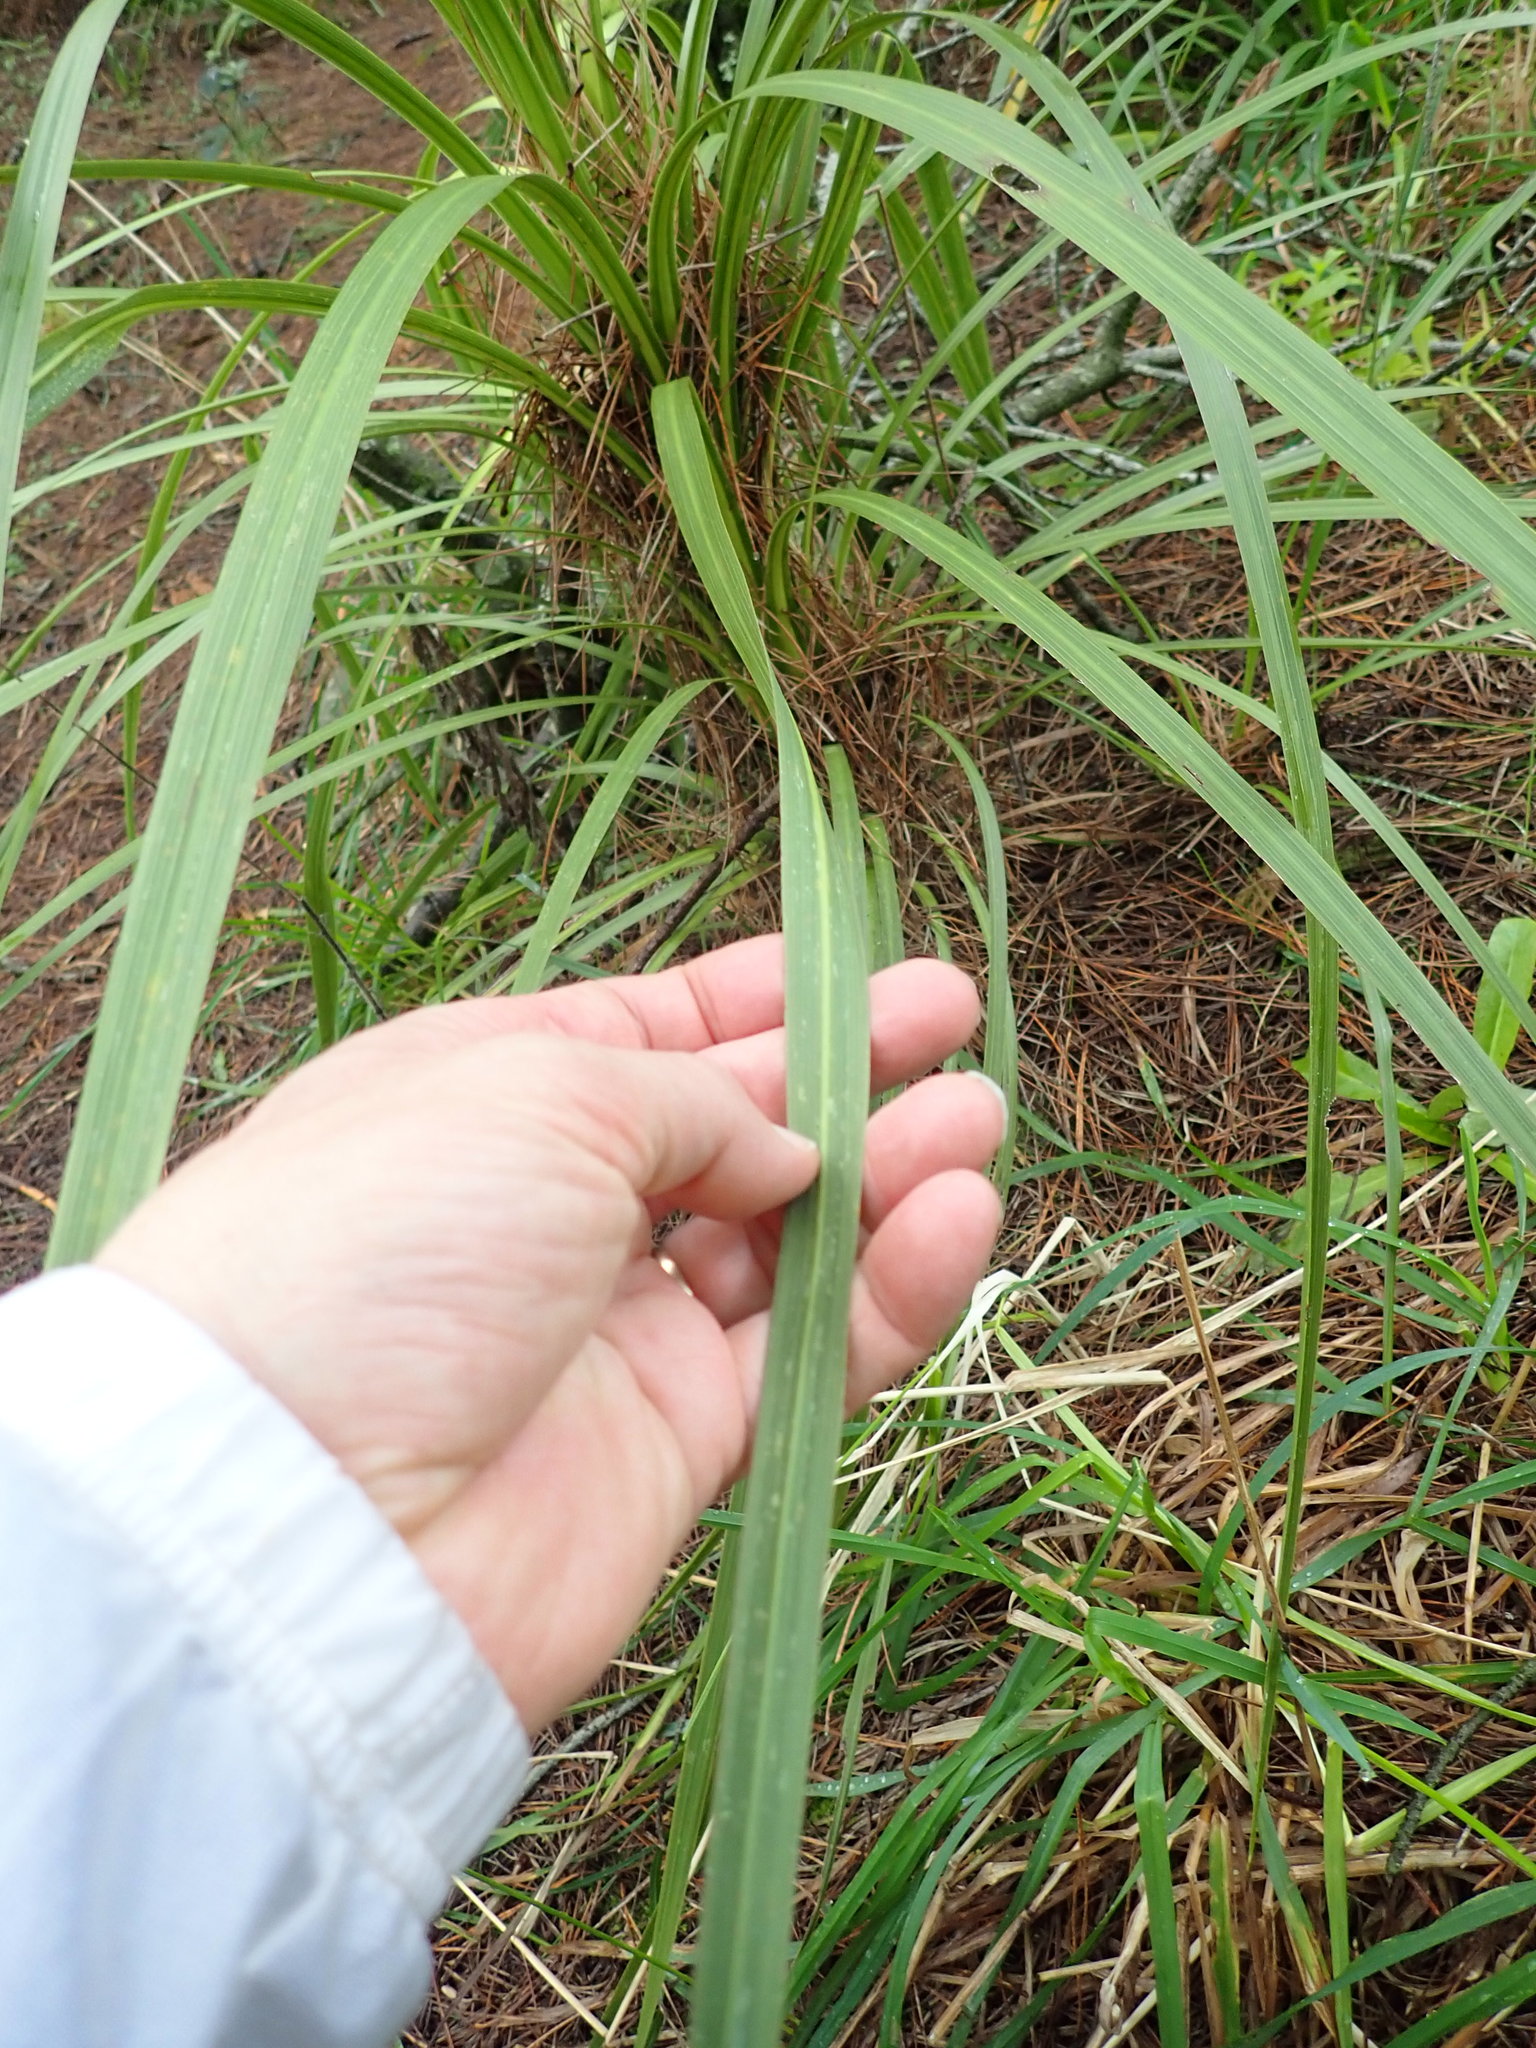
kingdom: Plantae
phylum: Tracheophyta
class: Liliopsida
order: Asparagales
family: Asparagaceae
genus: Cordyline
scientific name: Cordyline banksii
